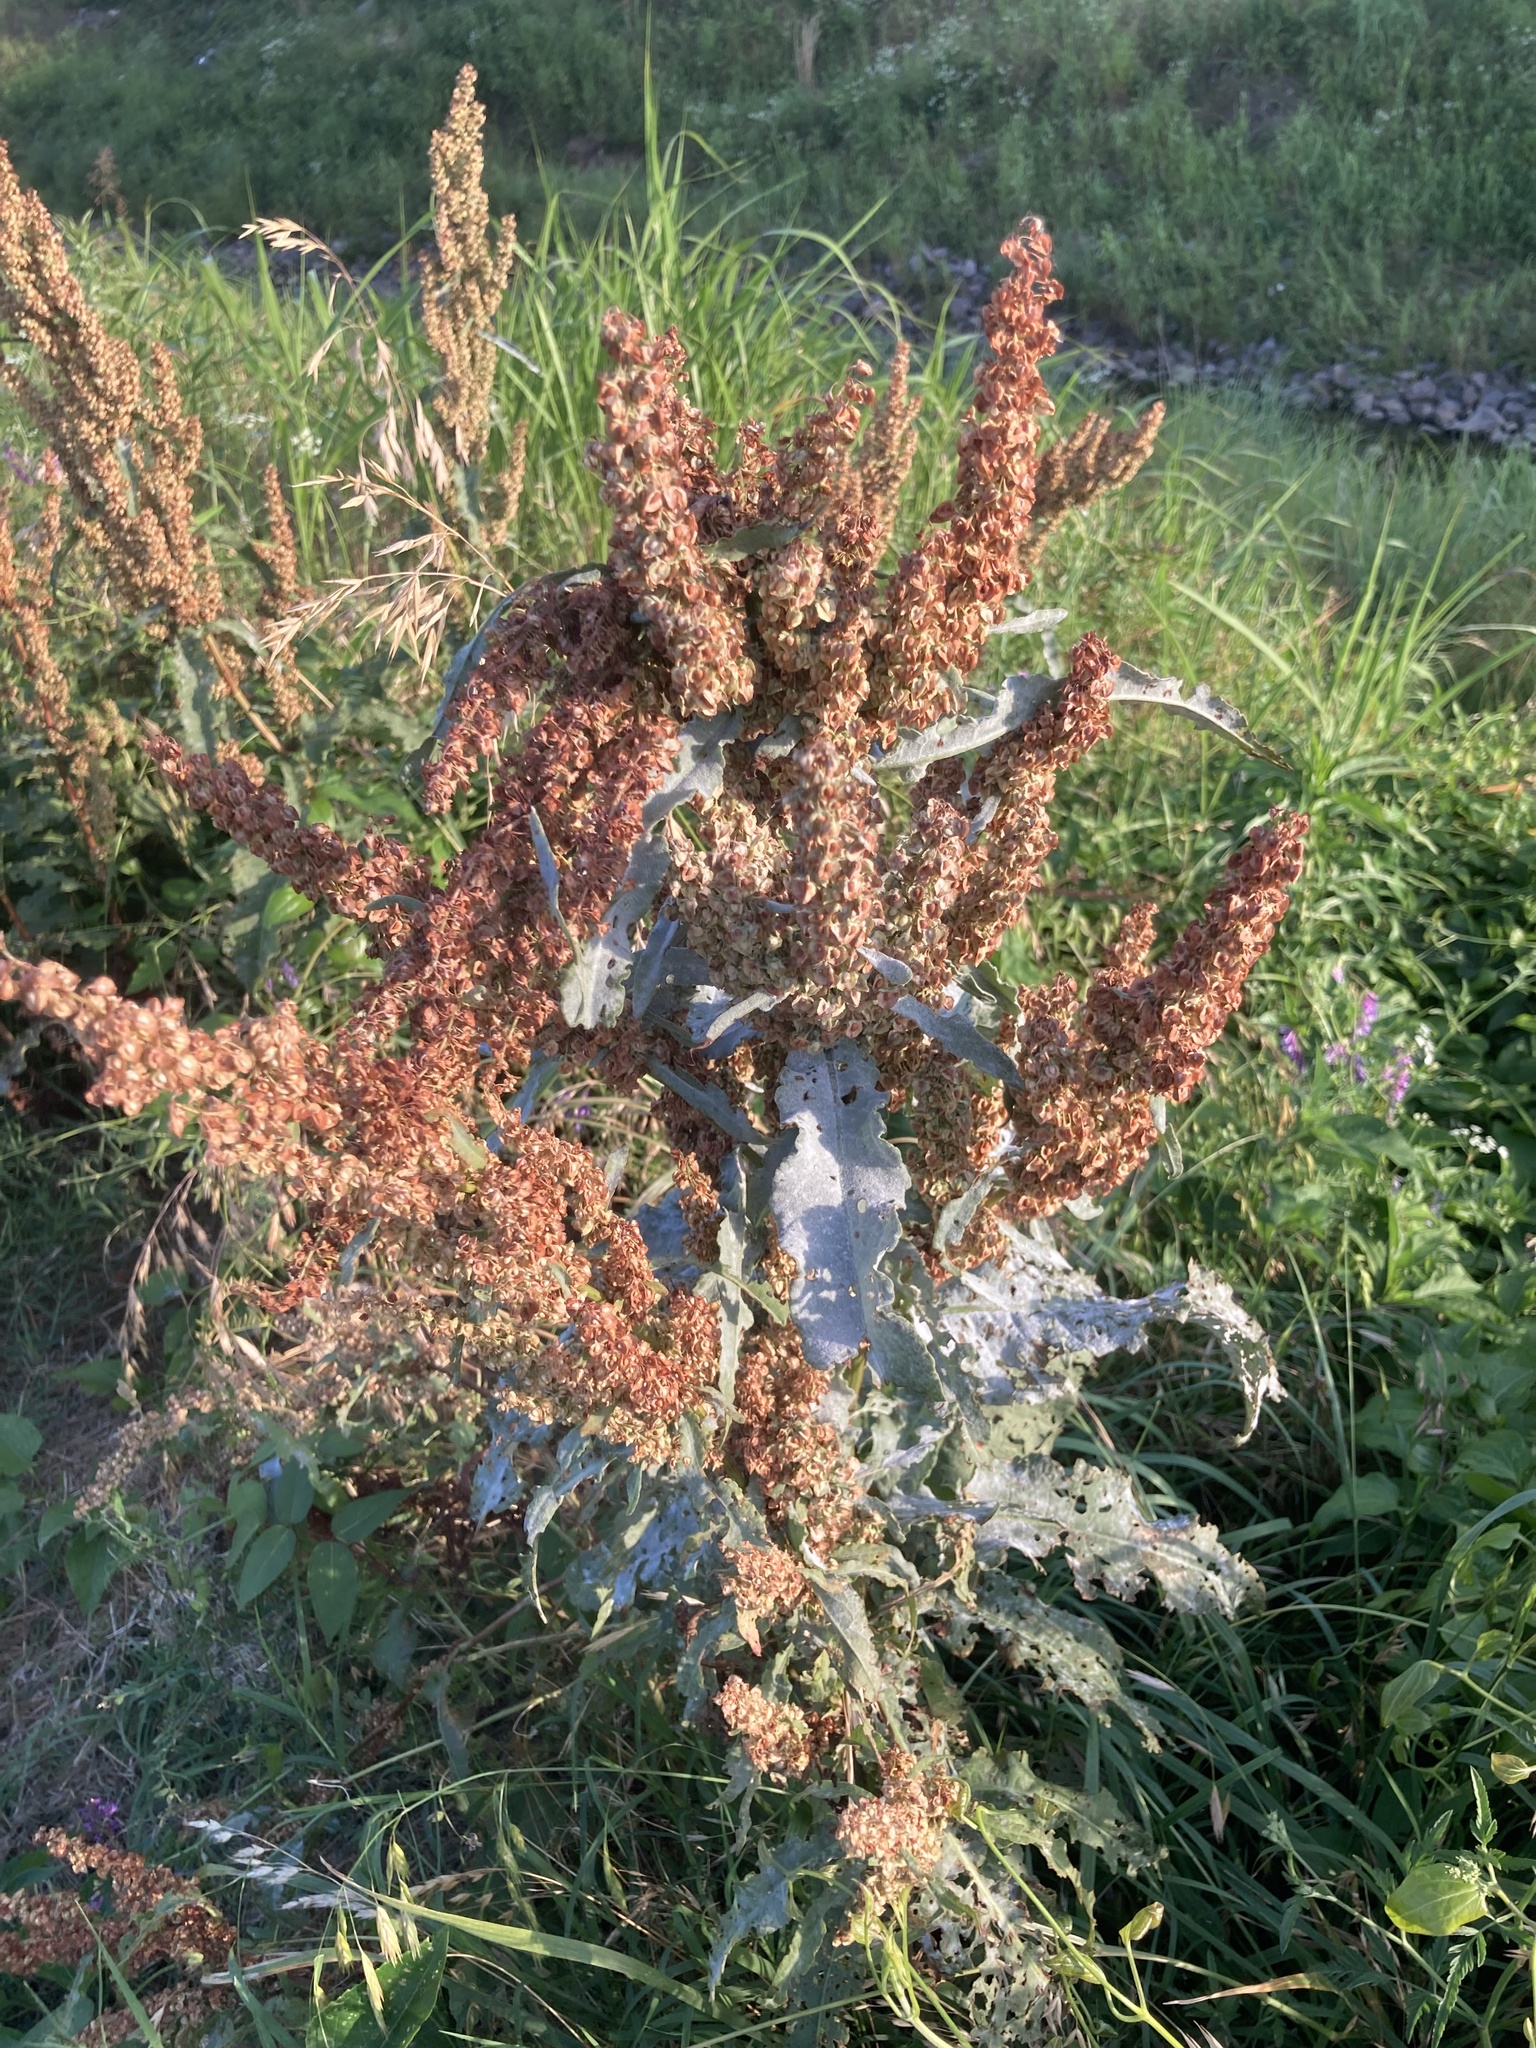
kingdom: Plantae
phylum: Tracheophyta
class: Magnoliopsida
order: Caryophyllales
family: Polygonaceae
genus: Rumex
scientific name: Rumex crispus
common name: Curled dock
